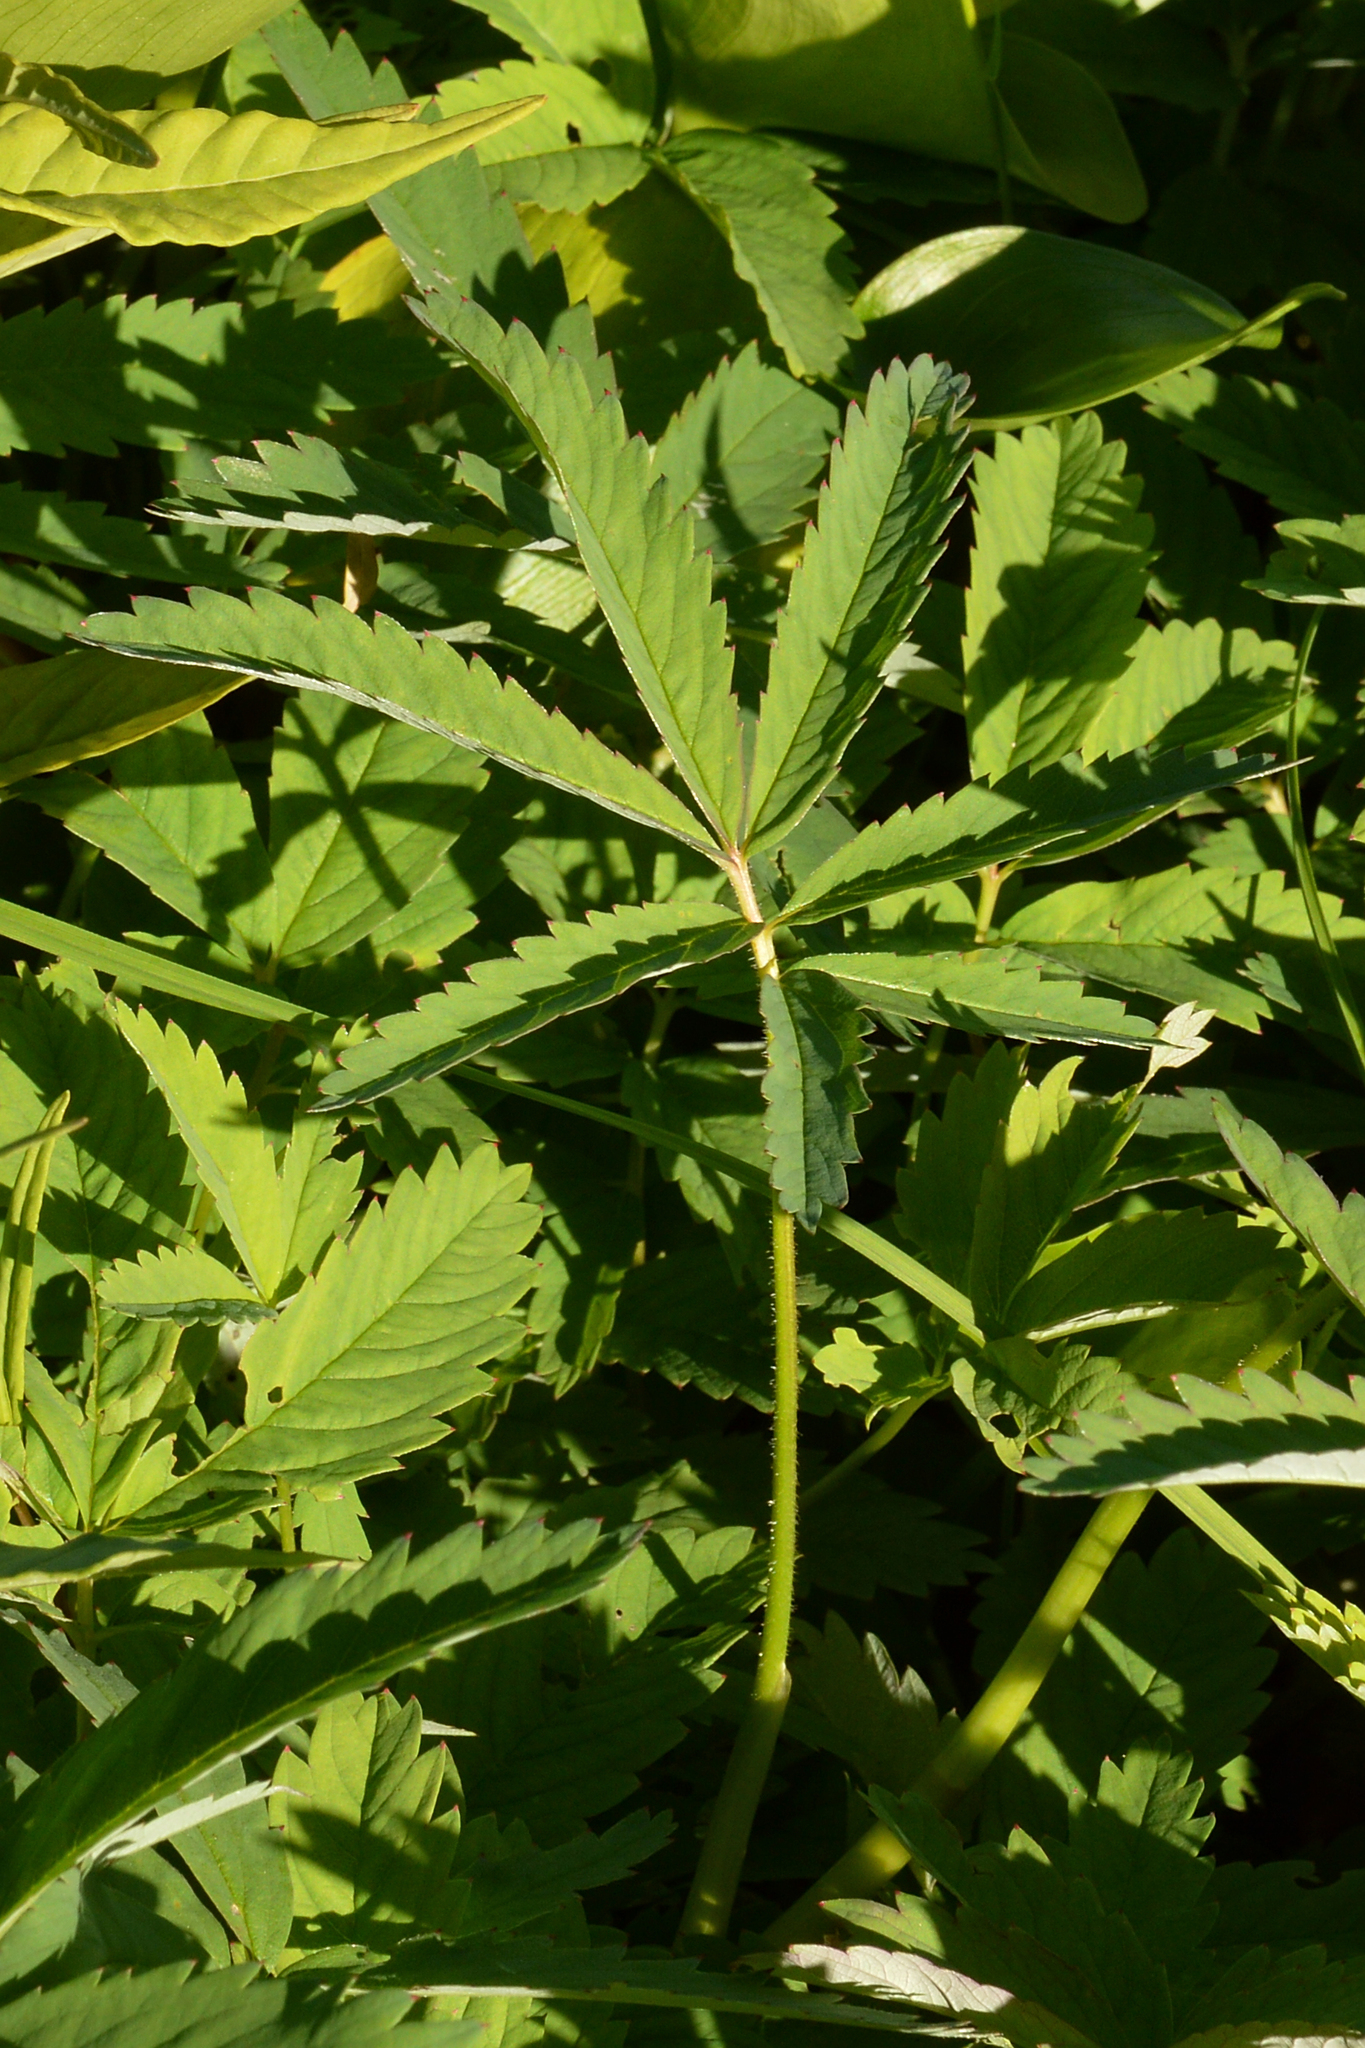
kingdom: Plantae
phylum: Tracheophyta
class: Magnoliopsida
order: Rosales
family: Rosaceae
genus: Comarum
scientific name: Comarum palustre
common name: Marsh cinquefoil
